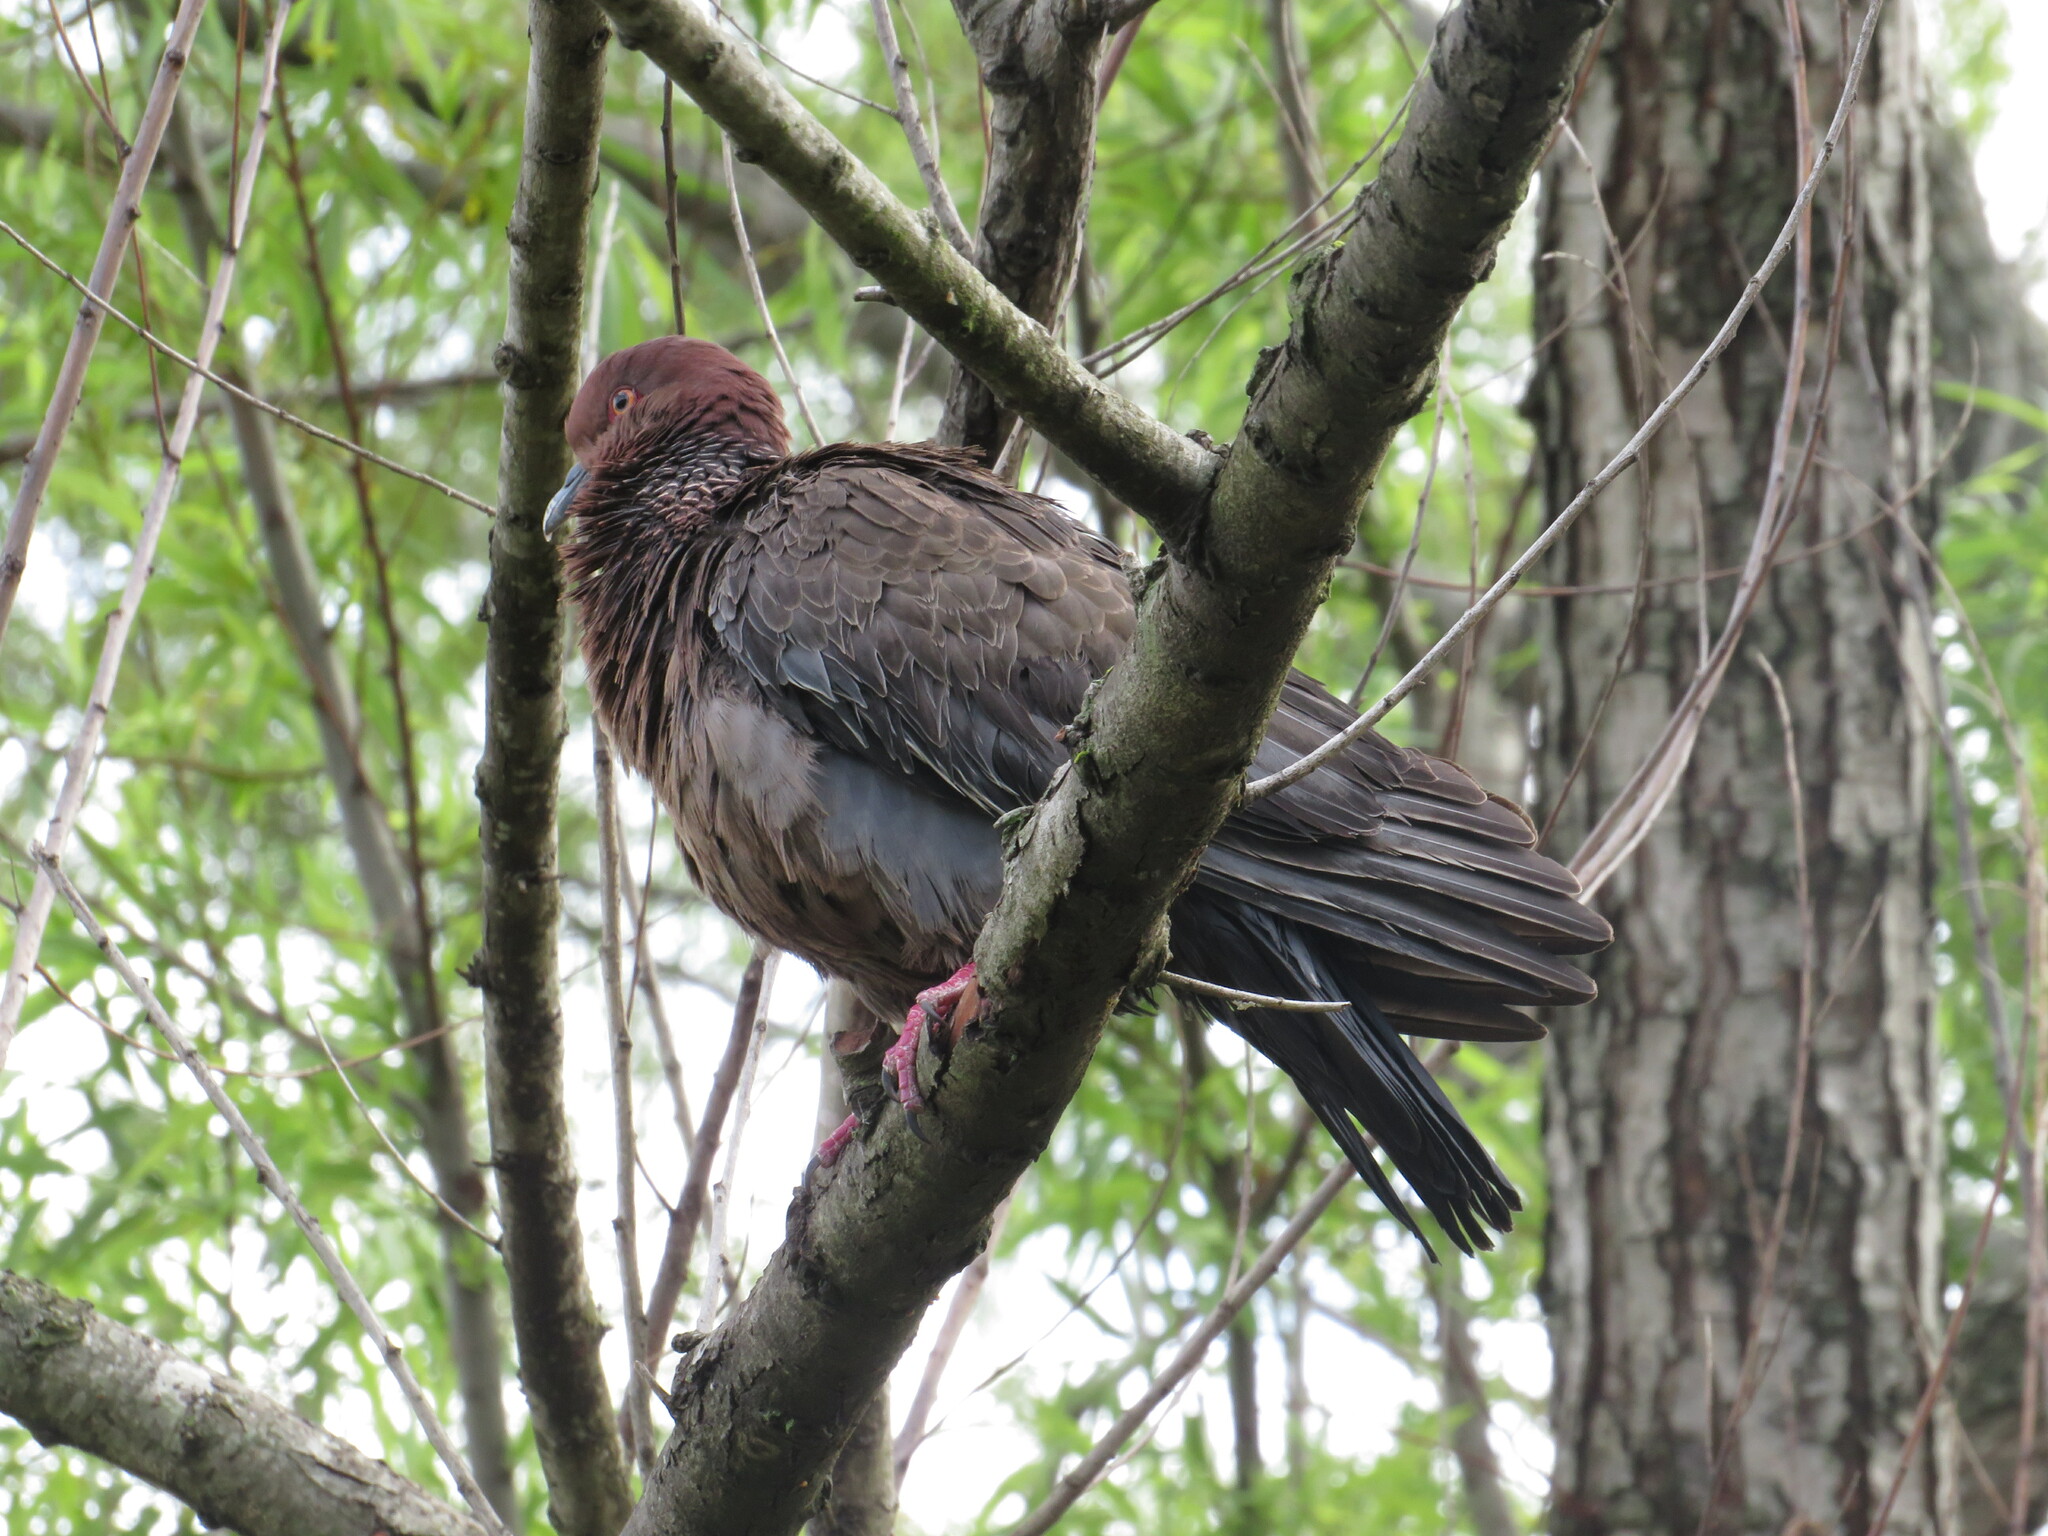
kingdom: Animalia
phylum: Chordata
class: Aves
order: Columbiformes
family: Columbidae
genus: Patagioenas
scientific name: Patagioenas picazuro
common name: Picazuro pigeon
